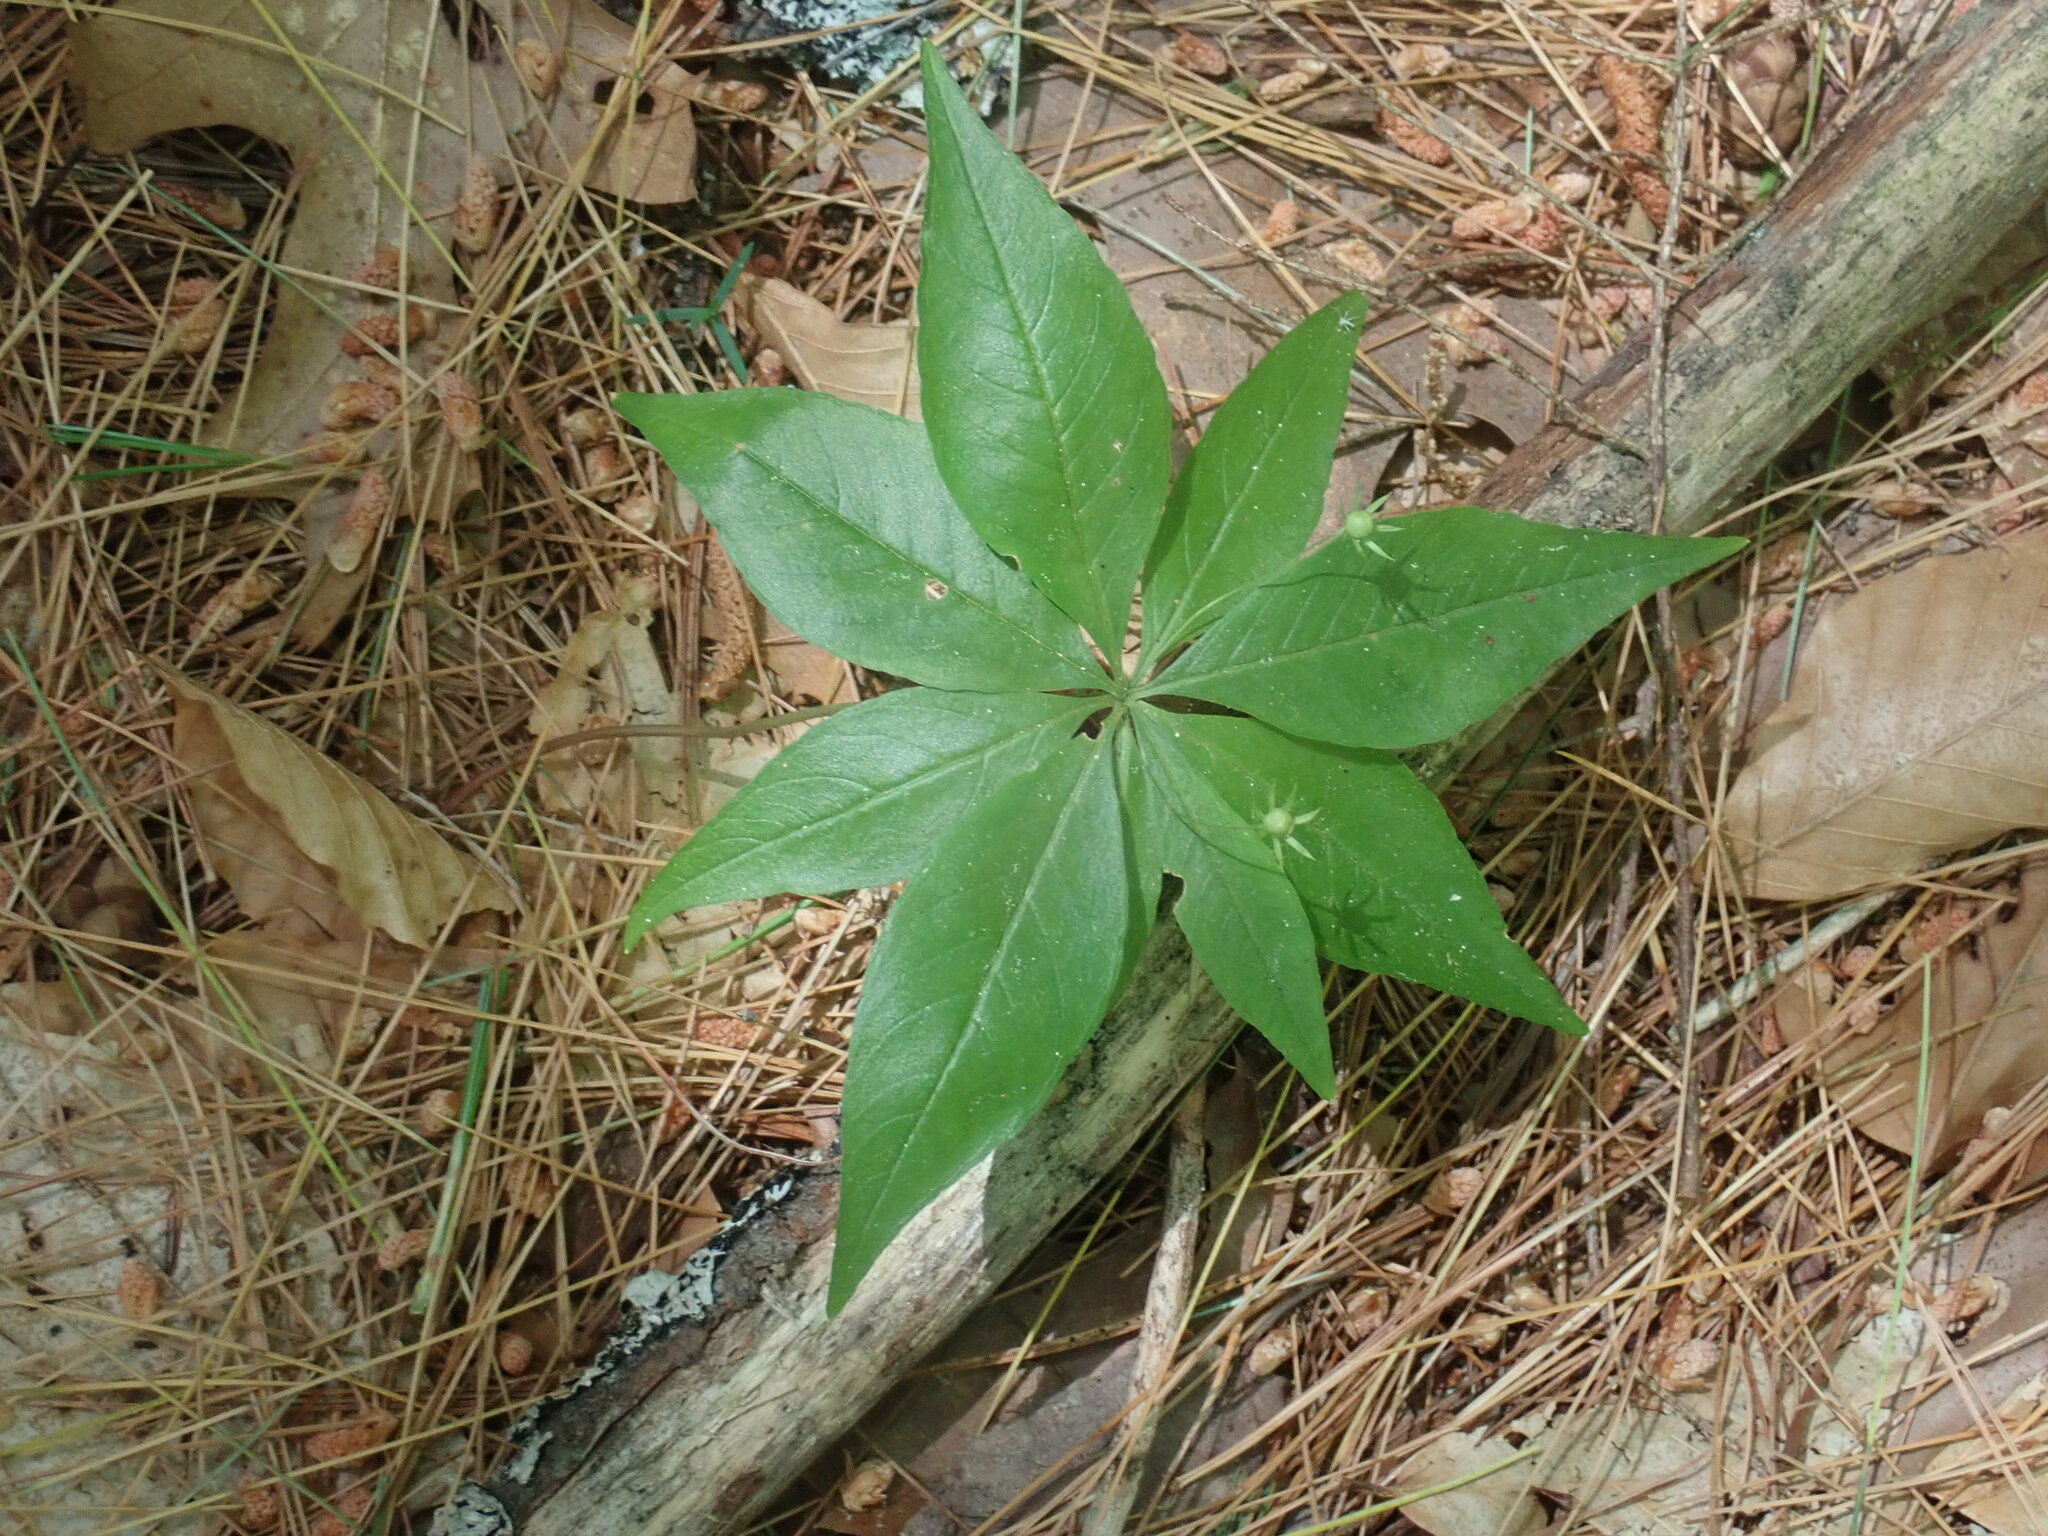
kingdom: Plantae
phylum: Tracheophyta
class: Magnoliopsida
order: Ericales
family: Primulaceae
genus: Lysimachia
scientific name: Lysimachia borealis
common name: American starflower
